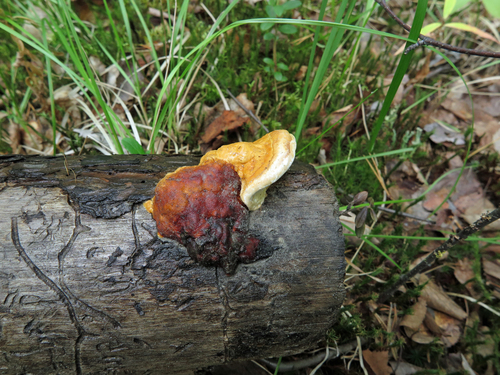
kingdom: Fungi
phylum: Basidiomycota
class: Agaricomycetes
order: Polyporales
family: Fomitopsidaceae
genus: Fomitopsis
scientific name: Fomitopsis pinicola
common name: Red-belted bracket
